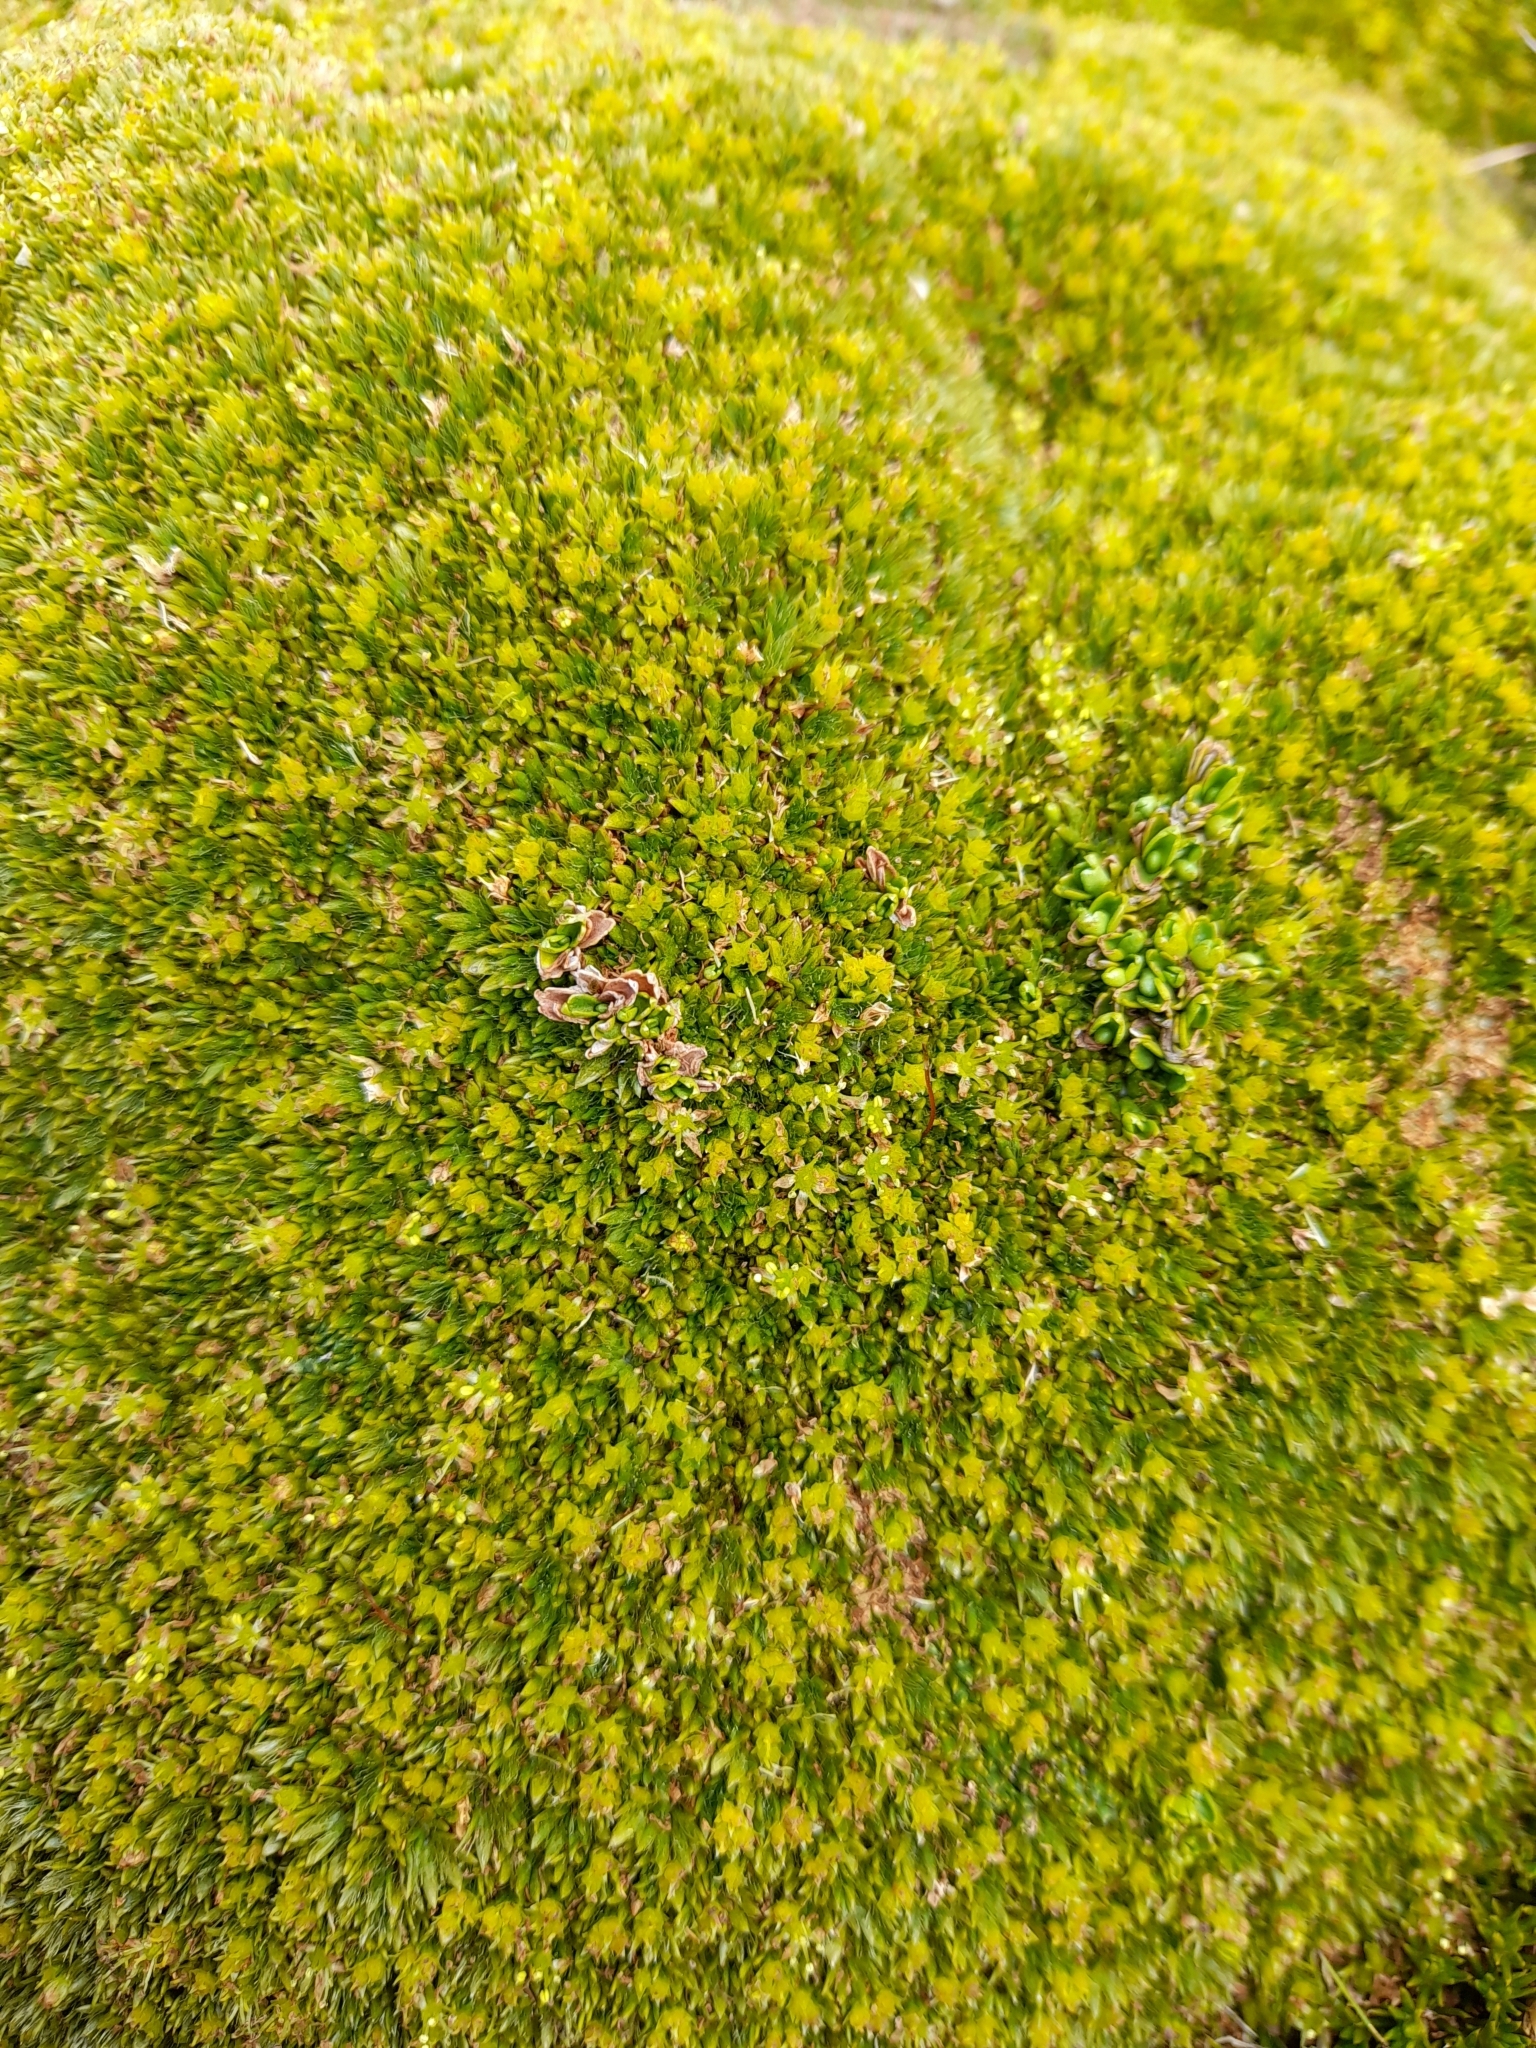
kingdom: Plantae
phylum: Tracheophyta
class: Magnoliopsida
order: Apiales
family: Apiaceae
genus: Azorella
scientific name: Azorella selago
